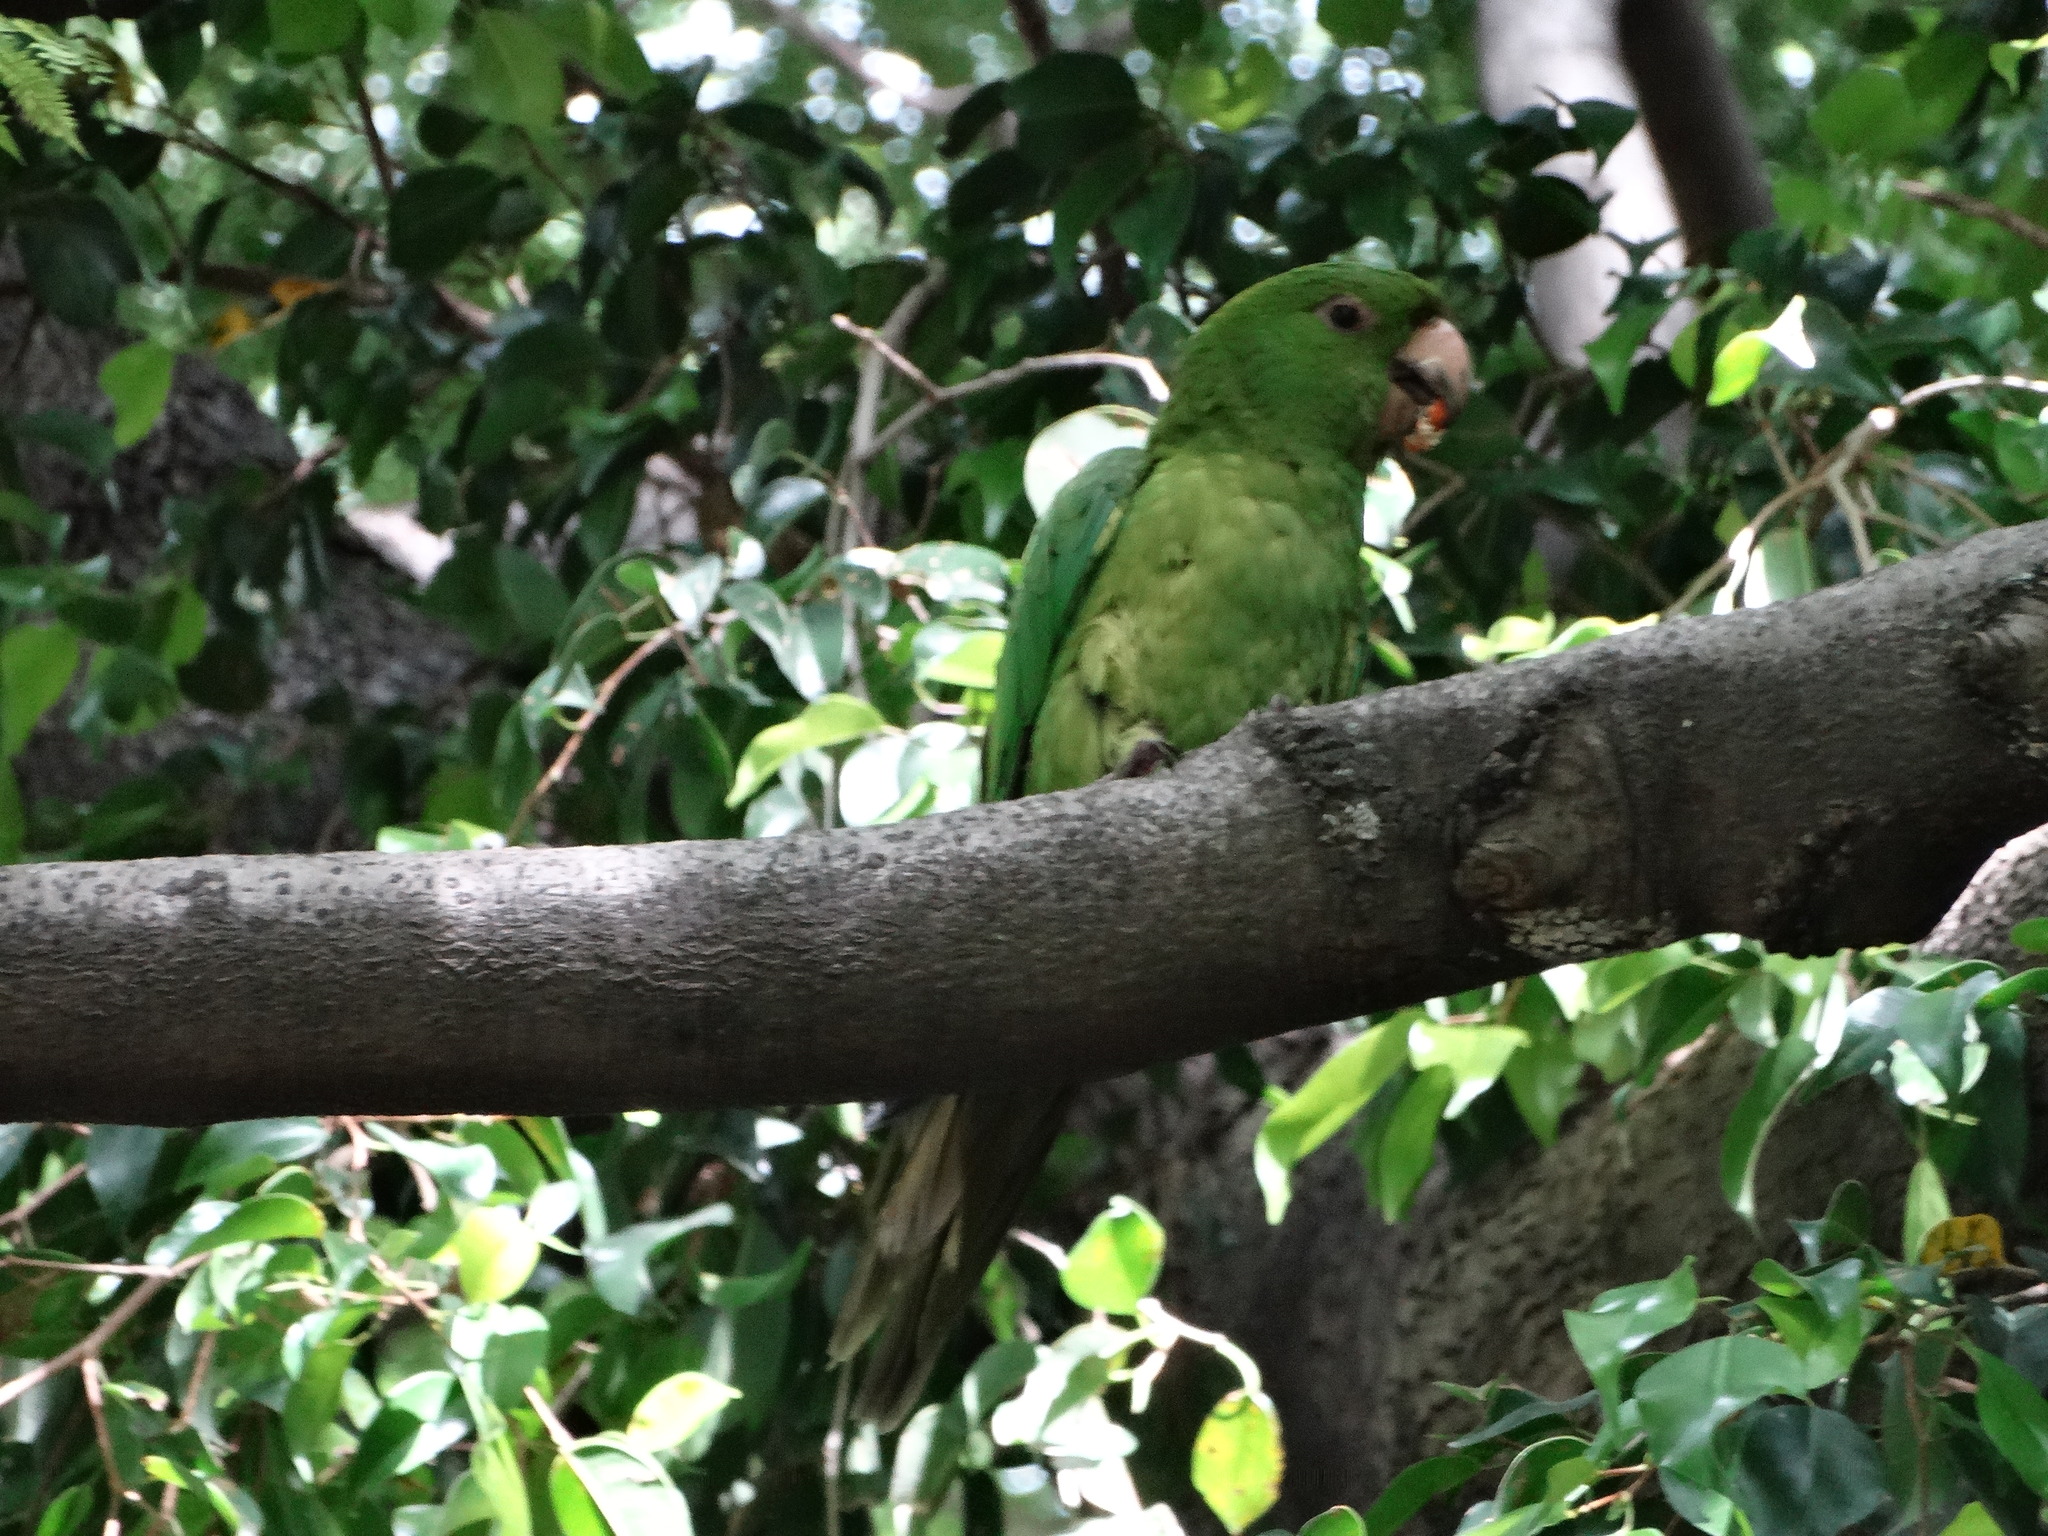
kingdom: Animalia
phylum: Chordata
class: Aves
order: Psittaciformes
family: Psittacidae
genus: Aratinga
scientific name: Aratinga holochlora
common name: Green parakeet
